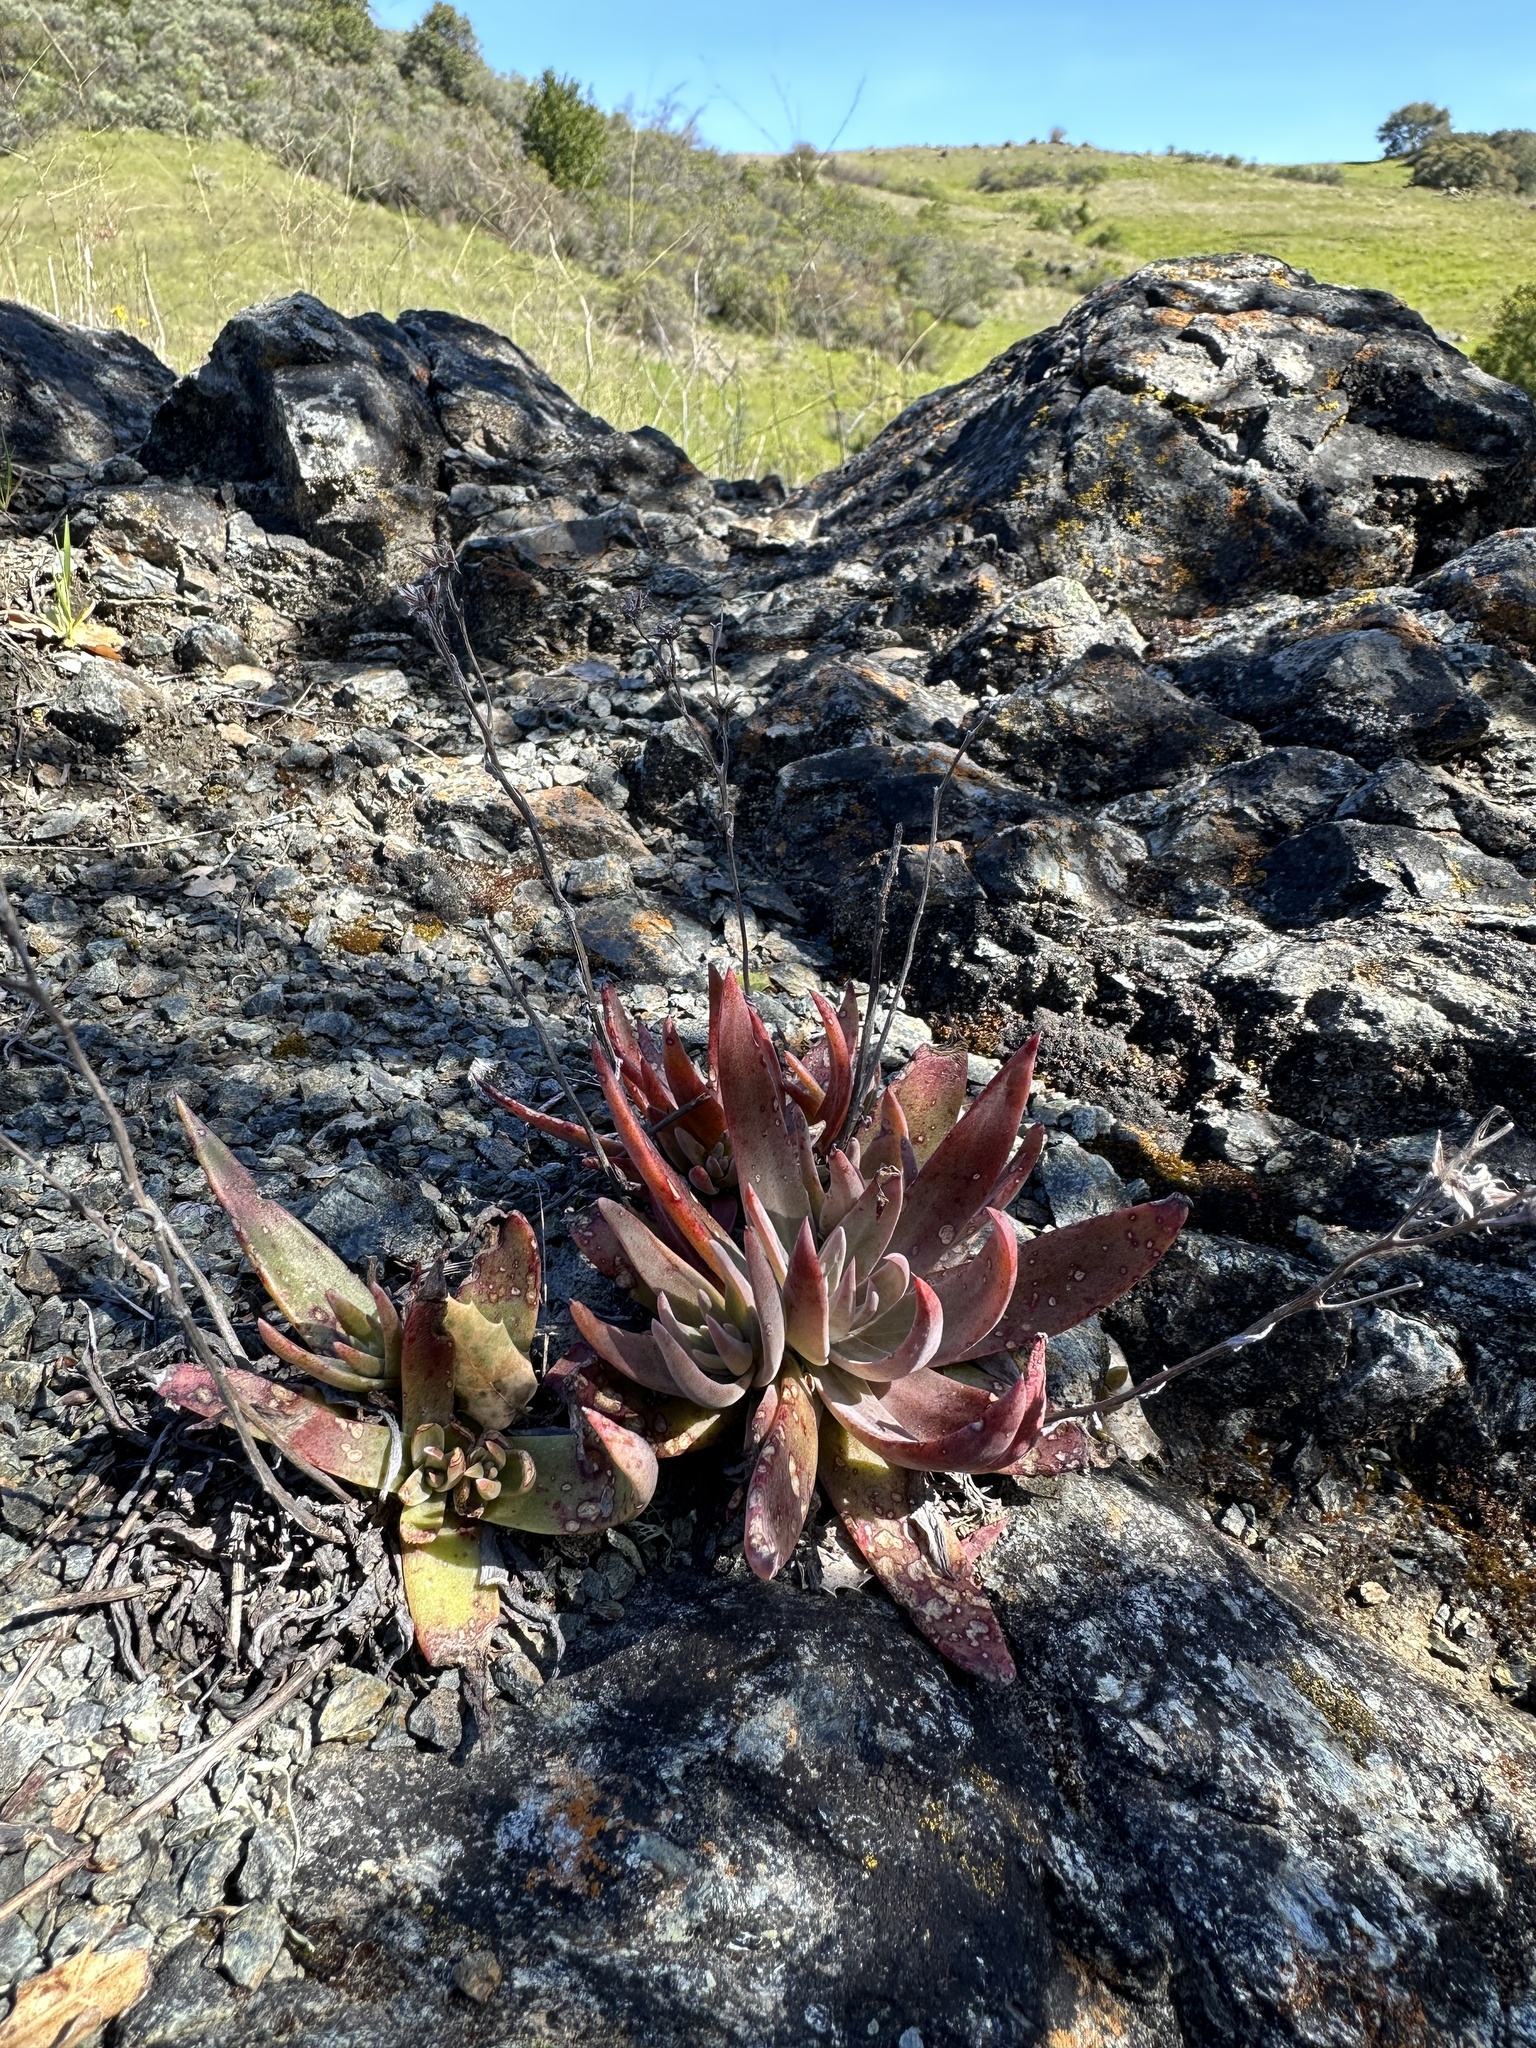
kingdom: Plantae
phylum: Tracheophyta
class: Magnoliopsida
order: Saxifragales
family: Crassulaceae
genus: Dudleya
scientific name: Dudleya abramsii
